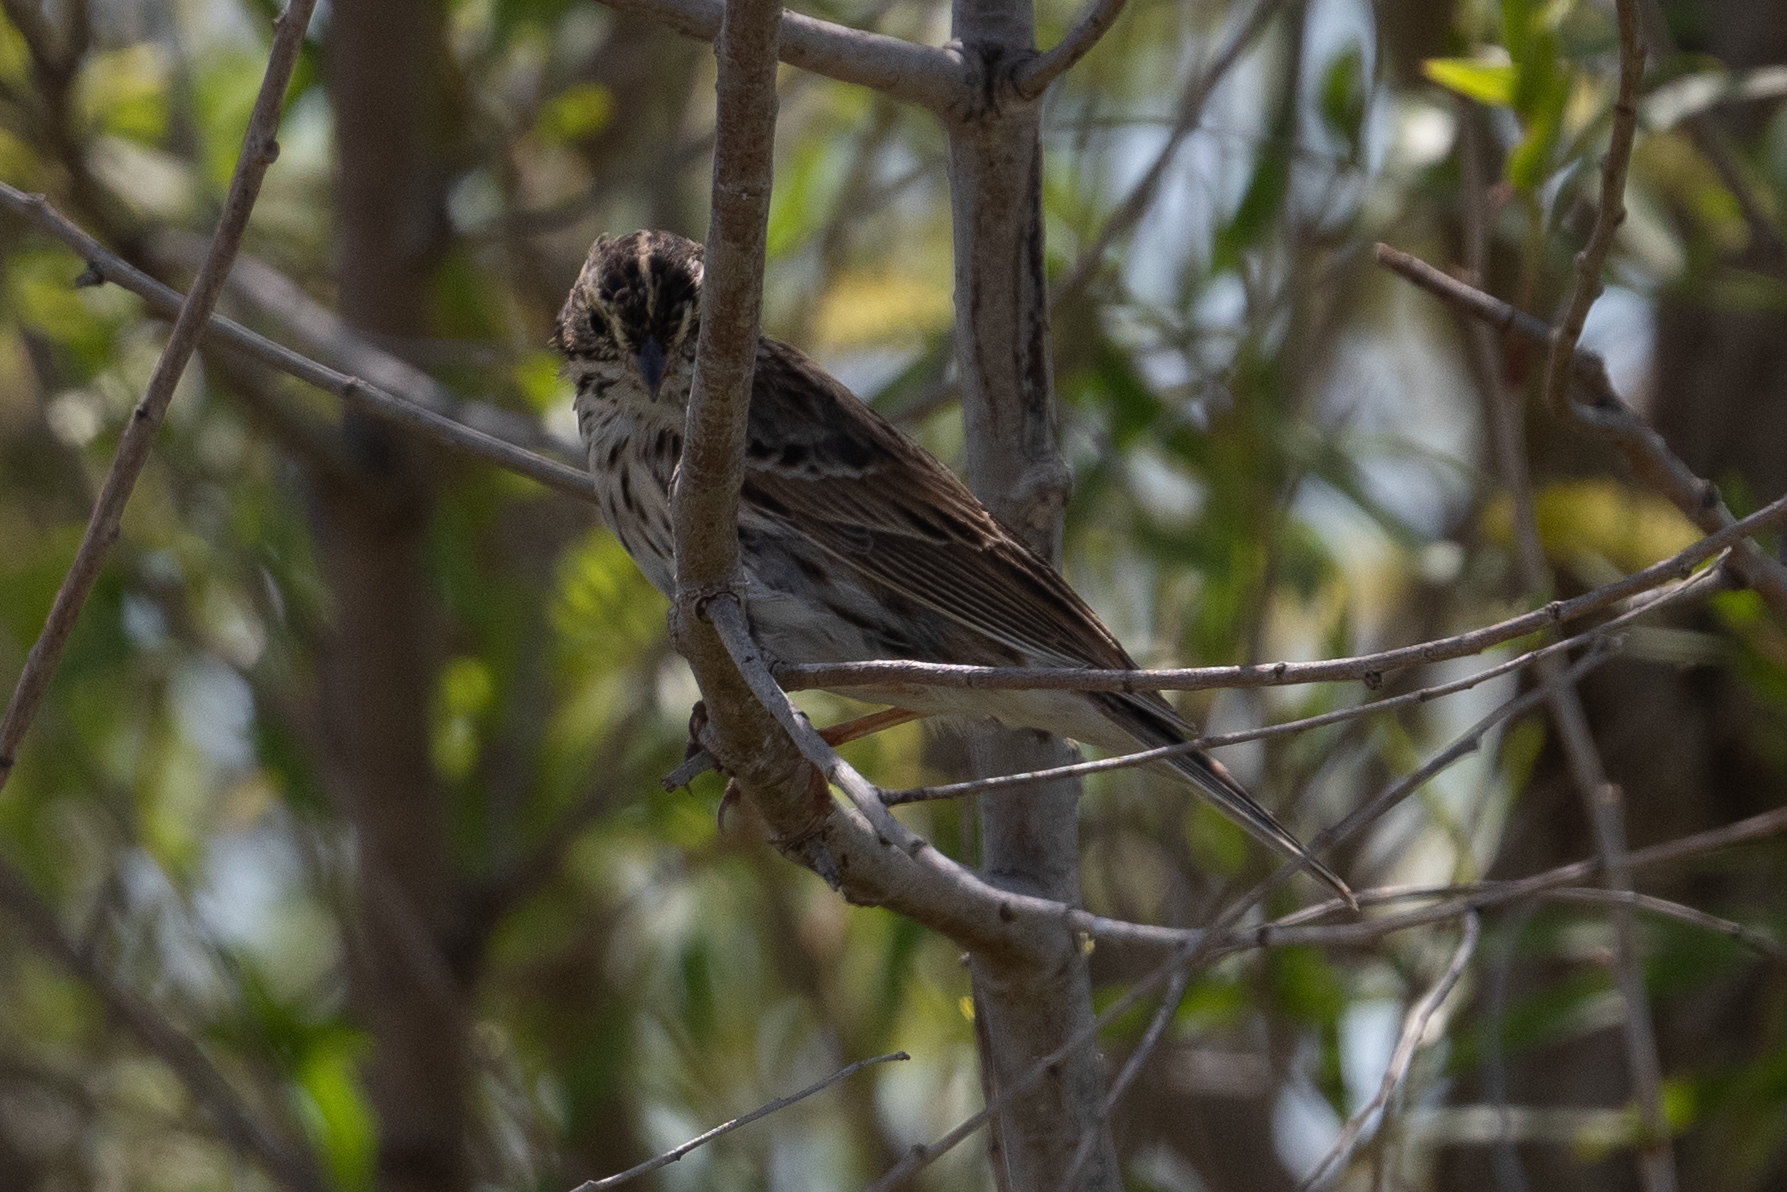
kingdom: Animalia
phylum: Chordata
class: Aves
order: Passeriformes
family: Passerellidae
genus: Passerculus
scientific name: Passerculus sandwichensis
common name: Savannah sparrow
